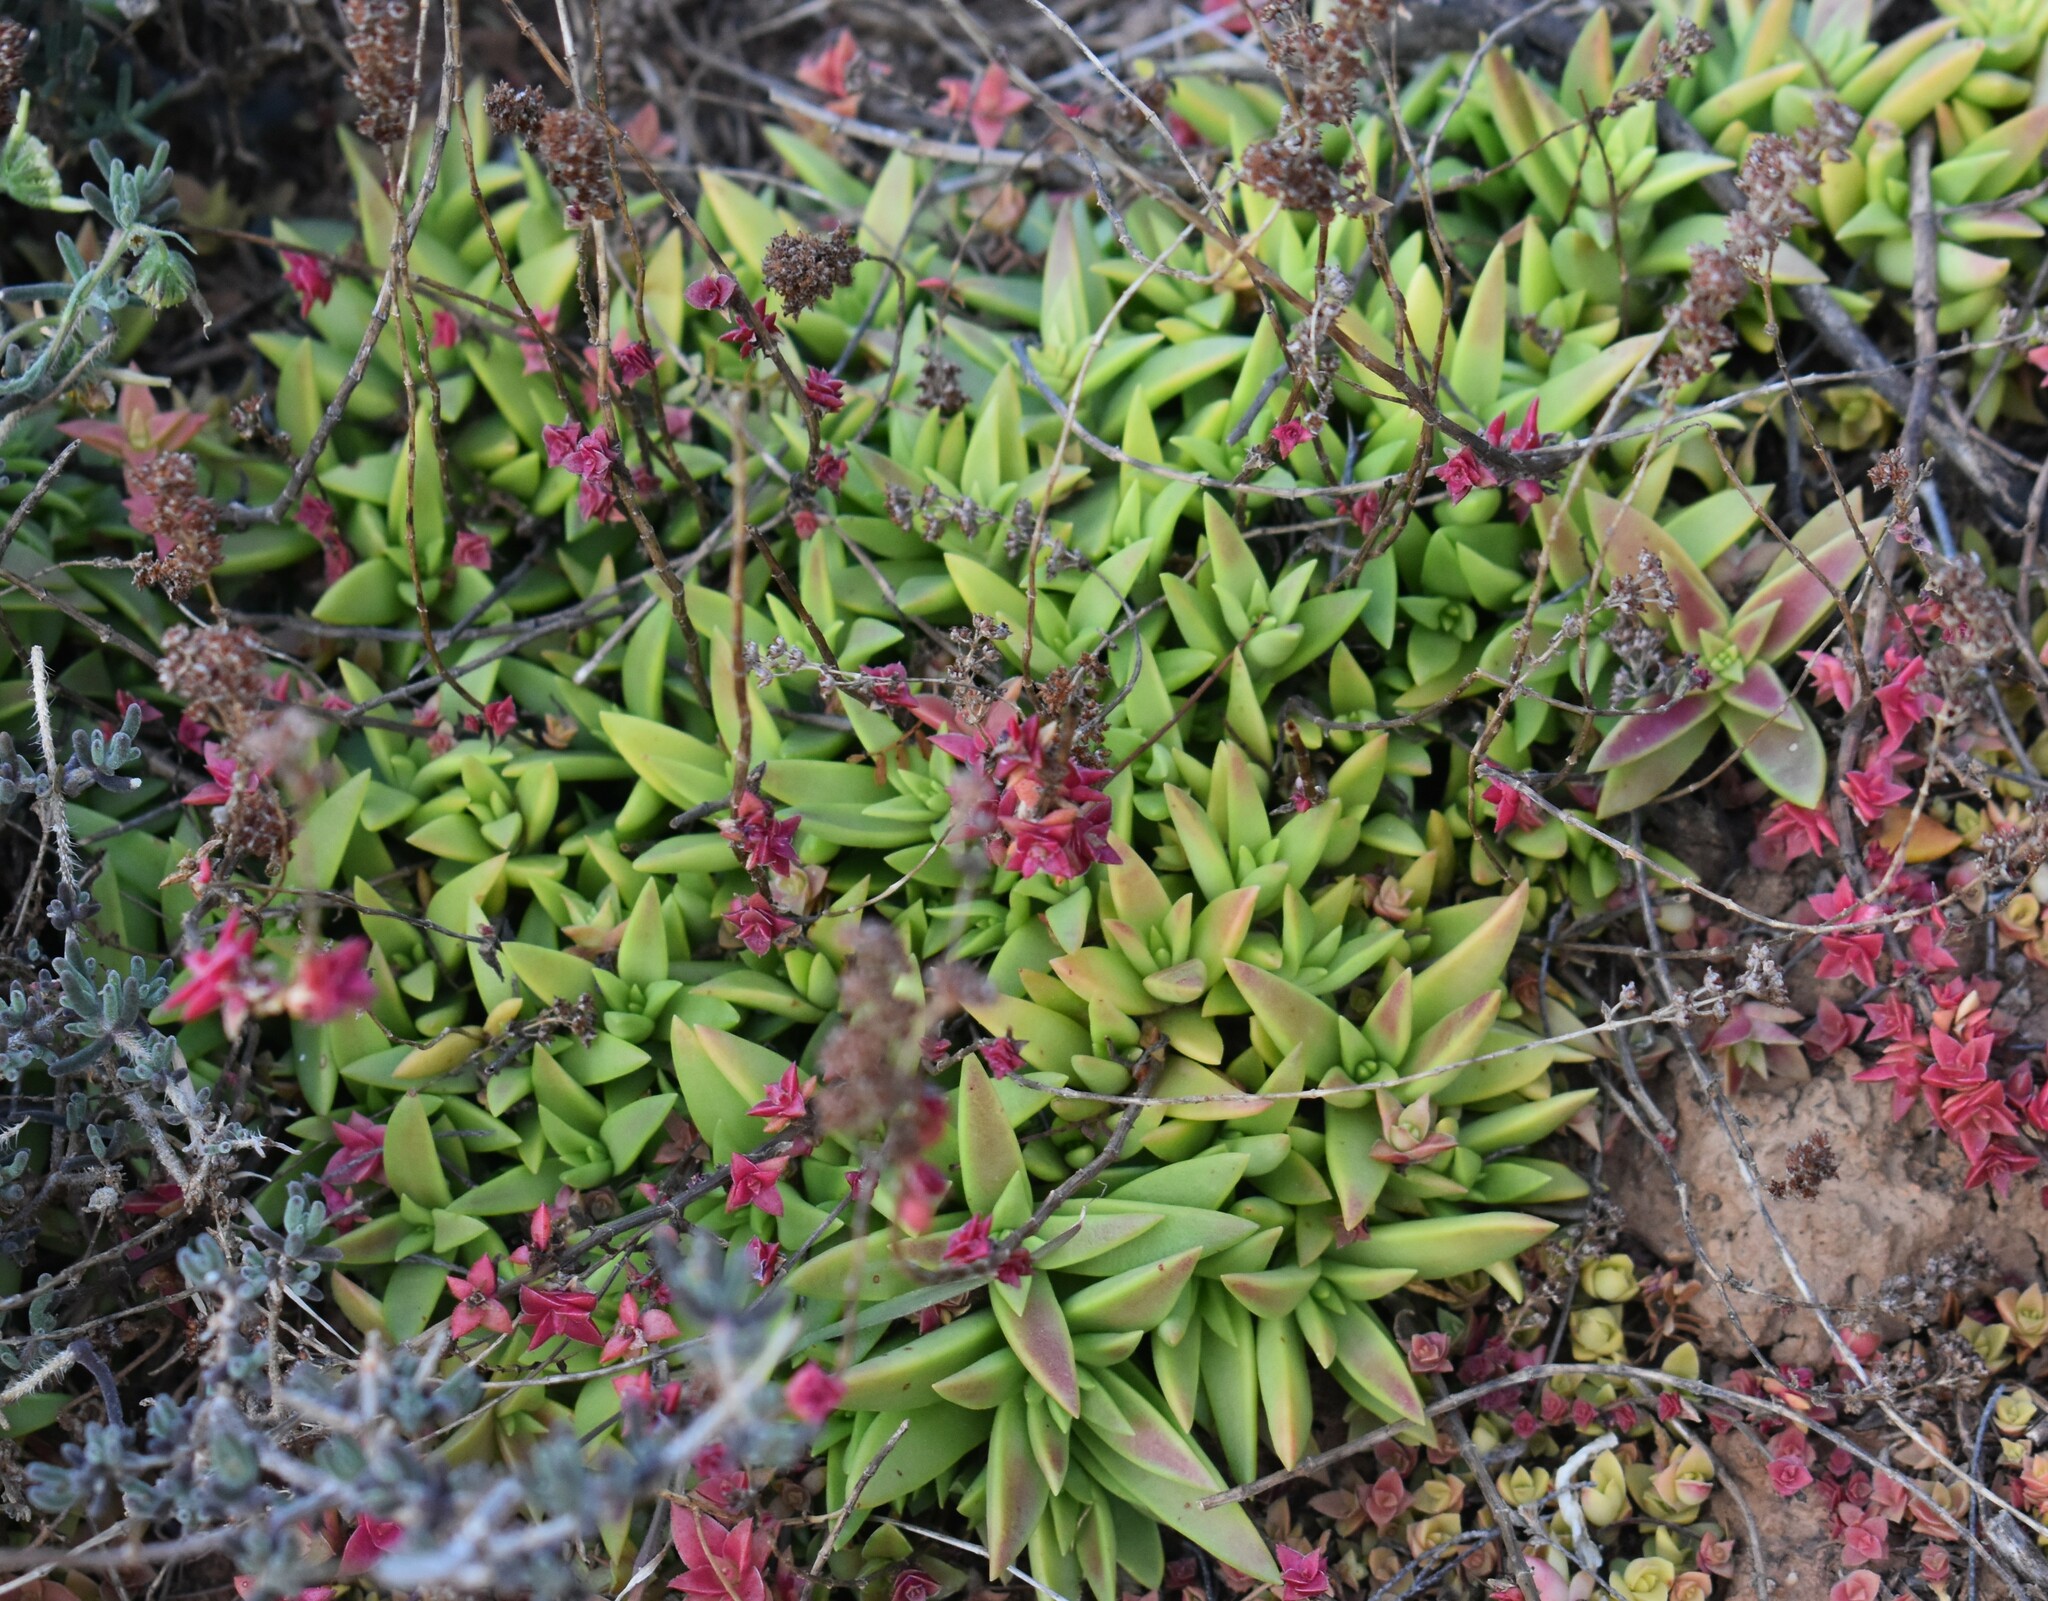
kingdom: Plantae
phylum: Tracheophyta
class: Magnoliopsida
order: Saxifragales
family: Crassulaceae
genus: Crassula
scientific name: Crassula capitella
